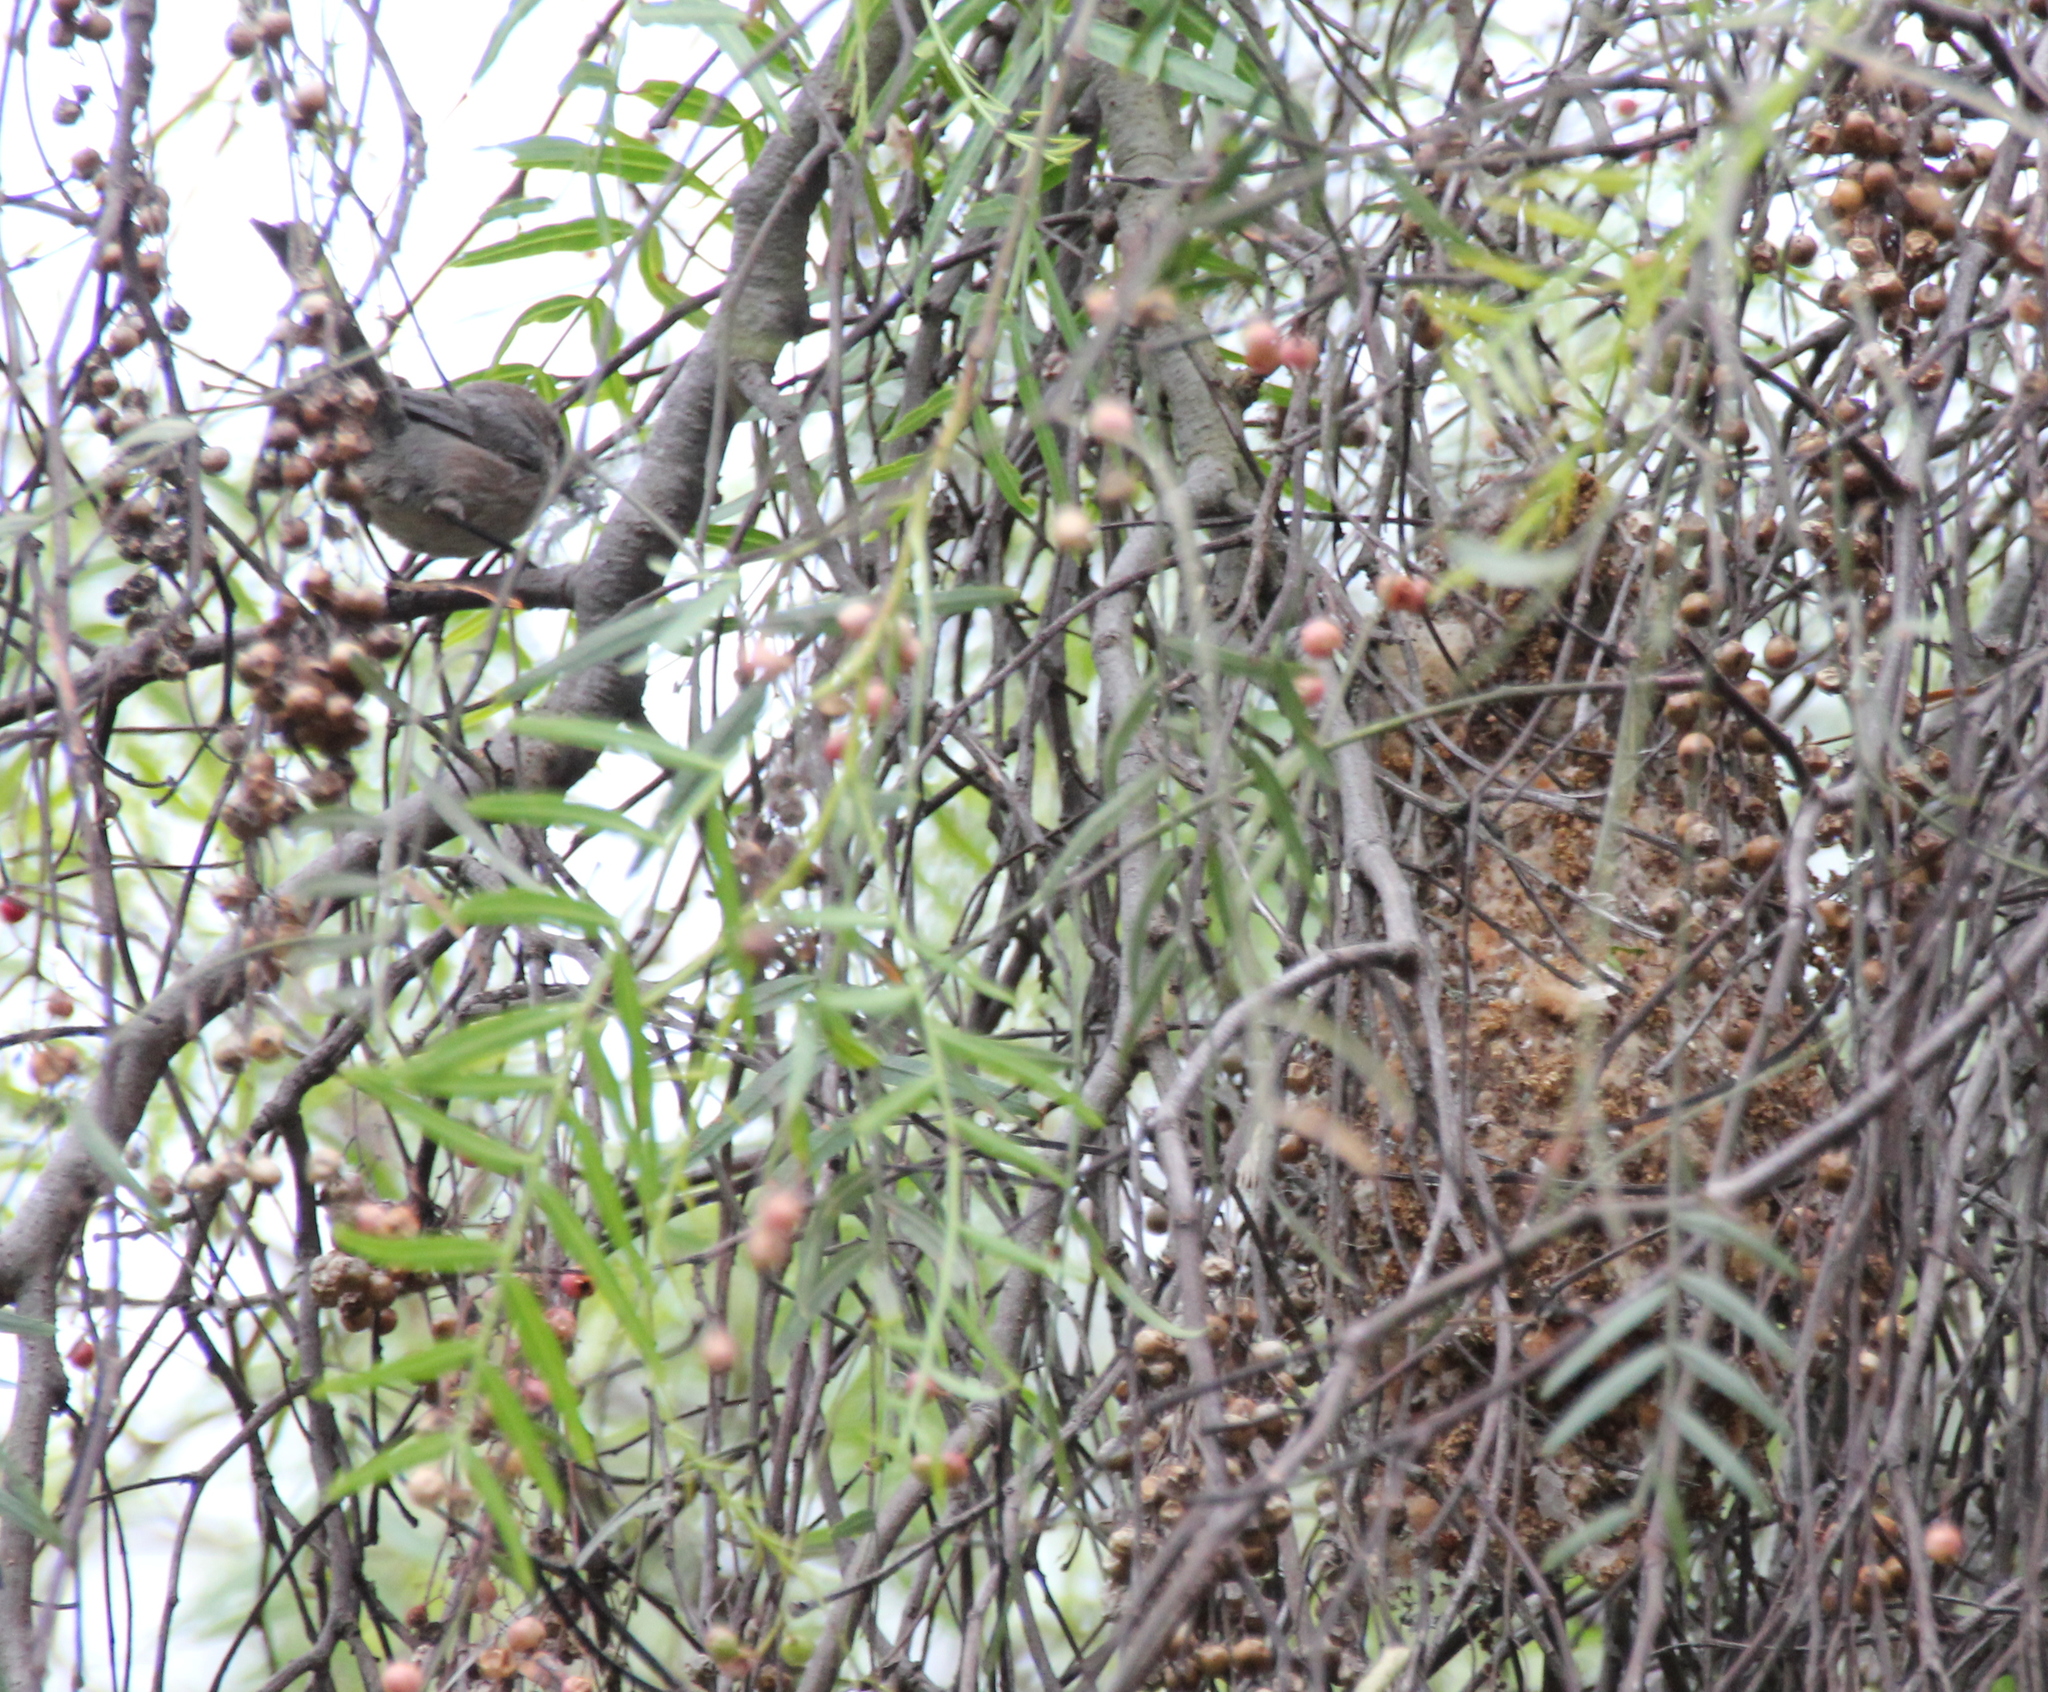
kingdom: Animalia
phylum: Chordata
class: Aves
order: Passeriformes
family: Aegithalidae
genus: Psaltriparus
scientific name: Psaltriparus minimus
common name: American bushtit
